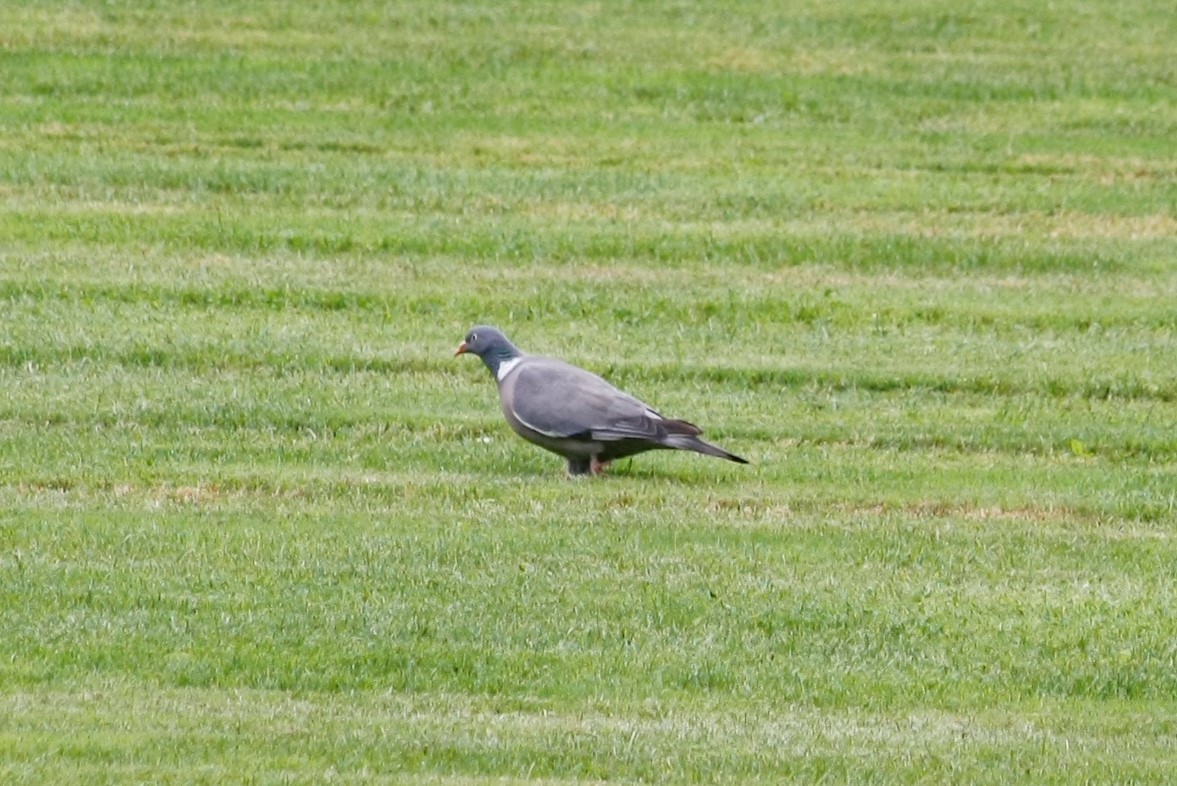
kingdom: Animalia
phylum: Chordata
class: Aves
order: Columbiformes
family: Columbidae
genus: Columba
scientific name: Columba palumbus
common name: Common wood pigeon
